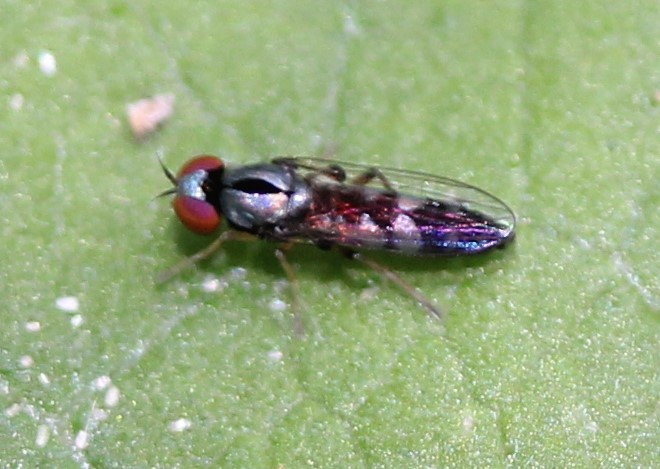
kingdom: Animalia
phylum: Arthropoda
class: Insecta
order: Diptera
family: Platypezidae
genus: Bertamyia
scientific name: Bertamyia notata
